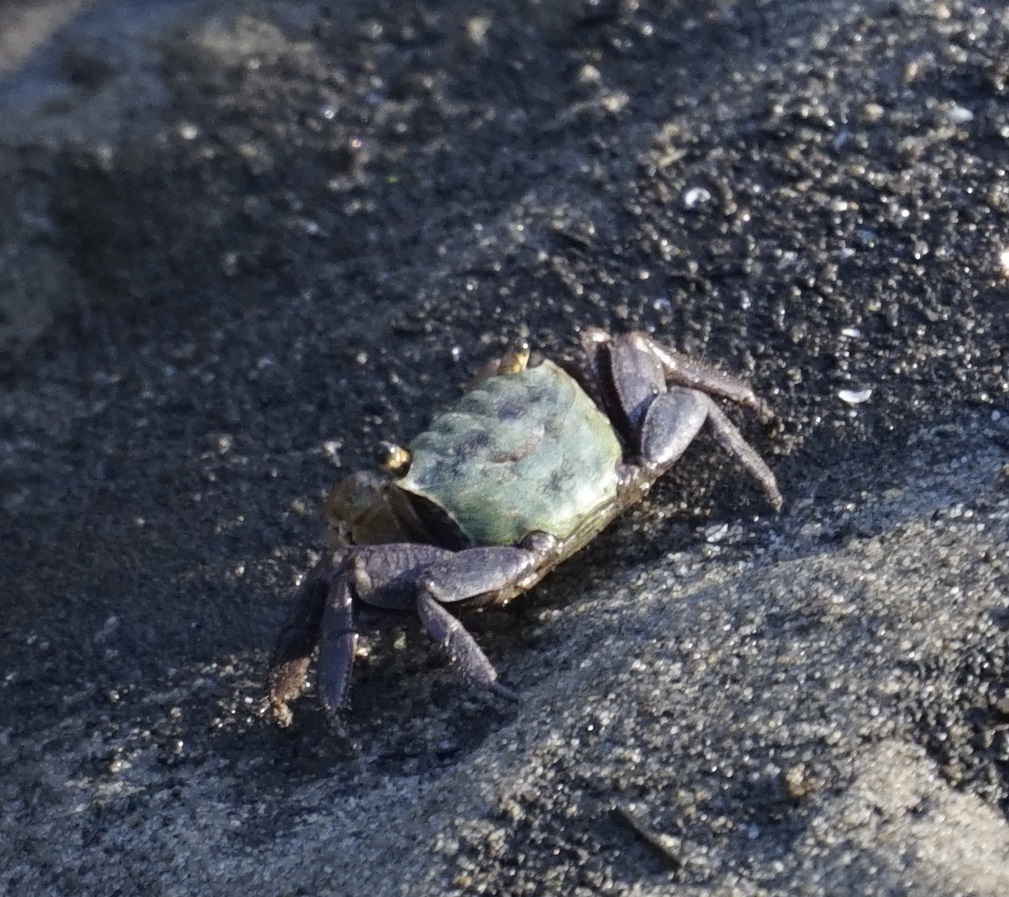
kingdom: Animalia
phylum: Arthropoda
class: Malacostraca
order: Decapoda
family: Sesarmidae
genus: Parasesarma
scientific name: Parasesarma erythodactylum
